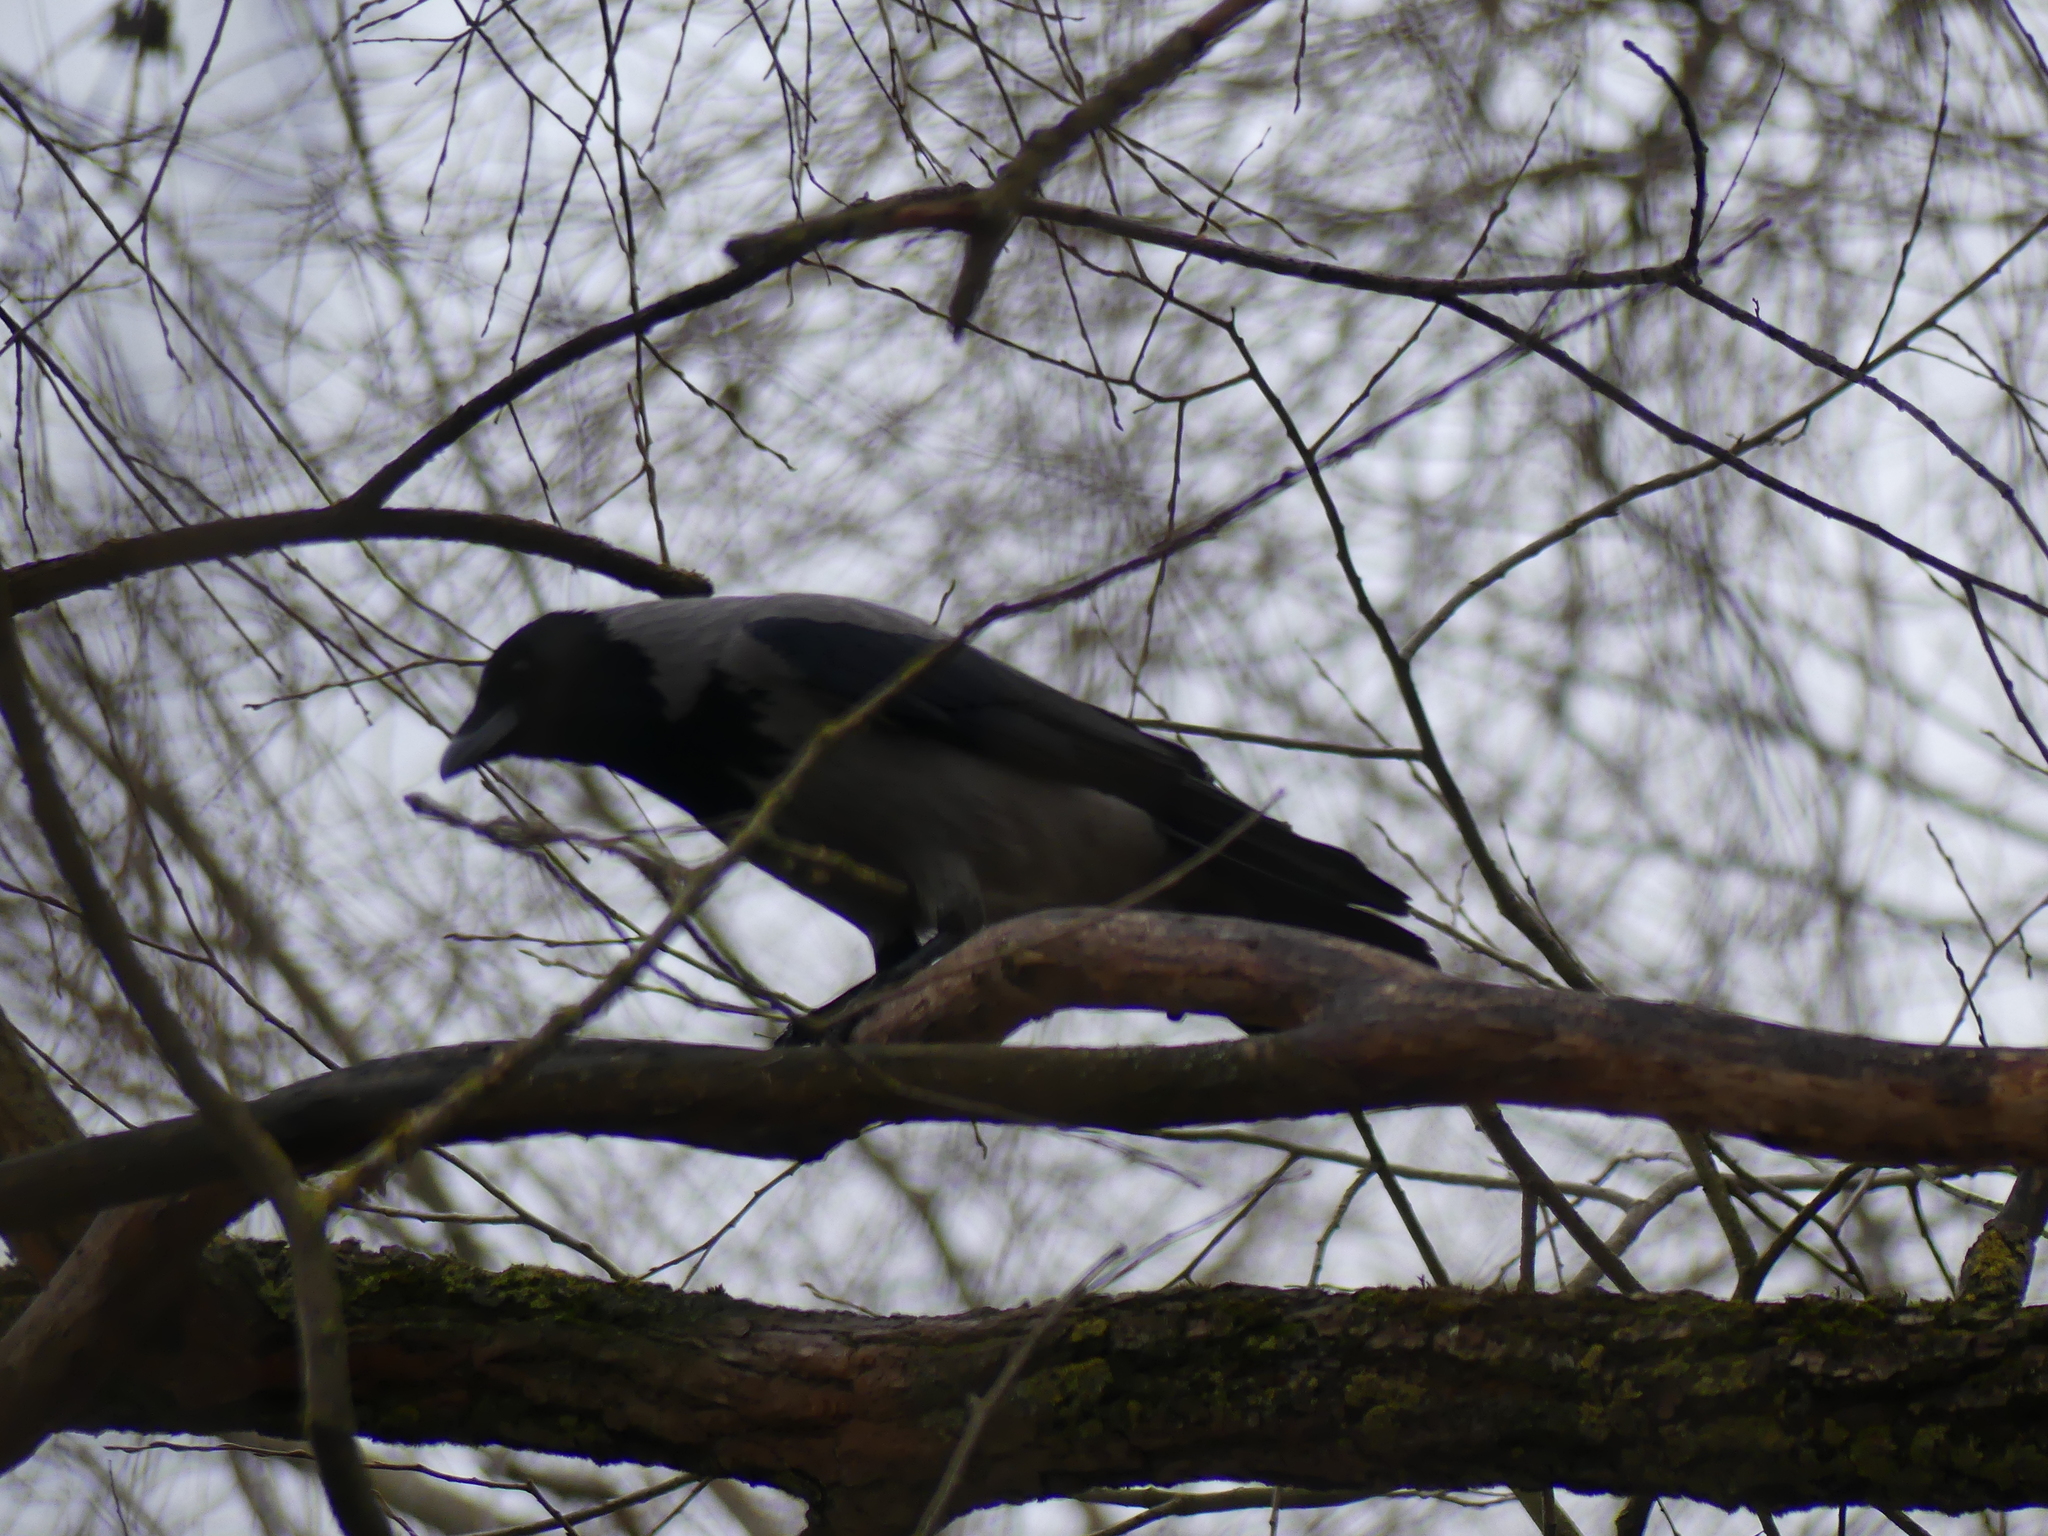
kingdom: Animalia
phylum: Chordata
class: Aves
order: Passeriformes
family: Corvidae
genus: Corvus
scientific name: Corvus cornix
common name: Hooded crow
